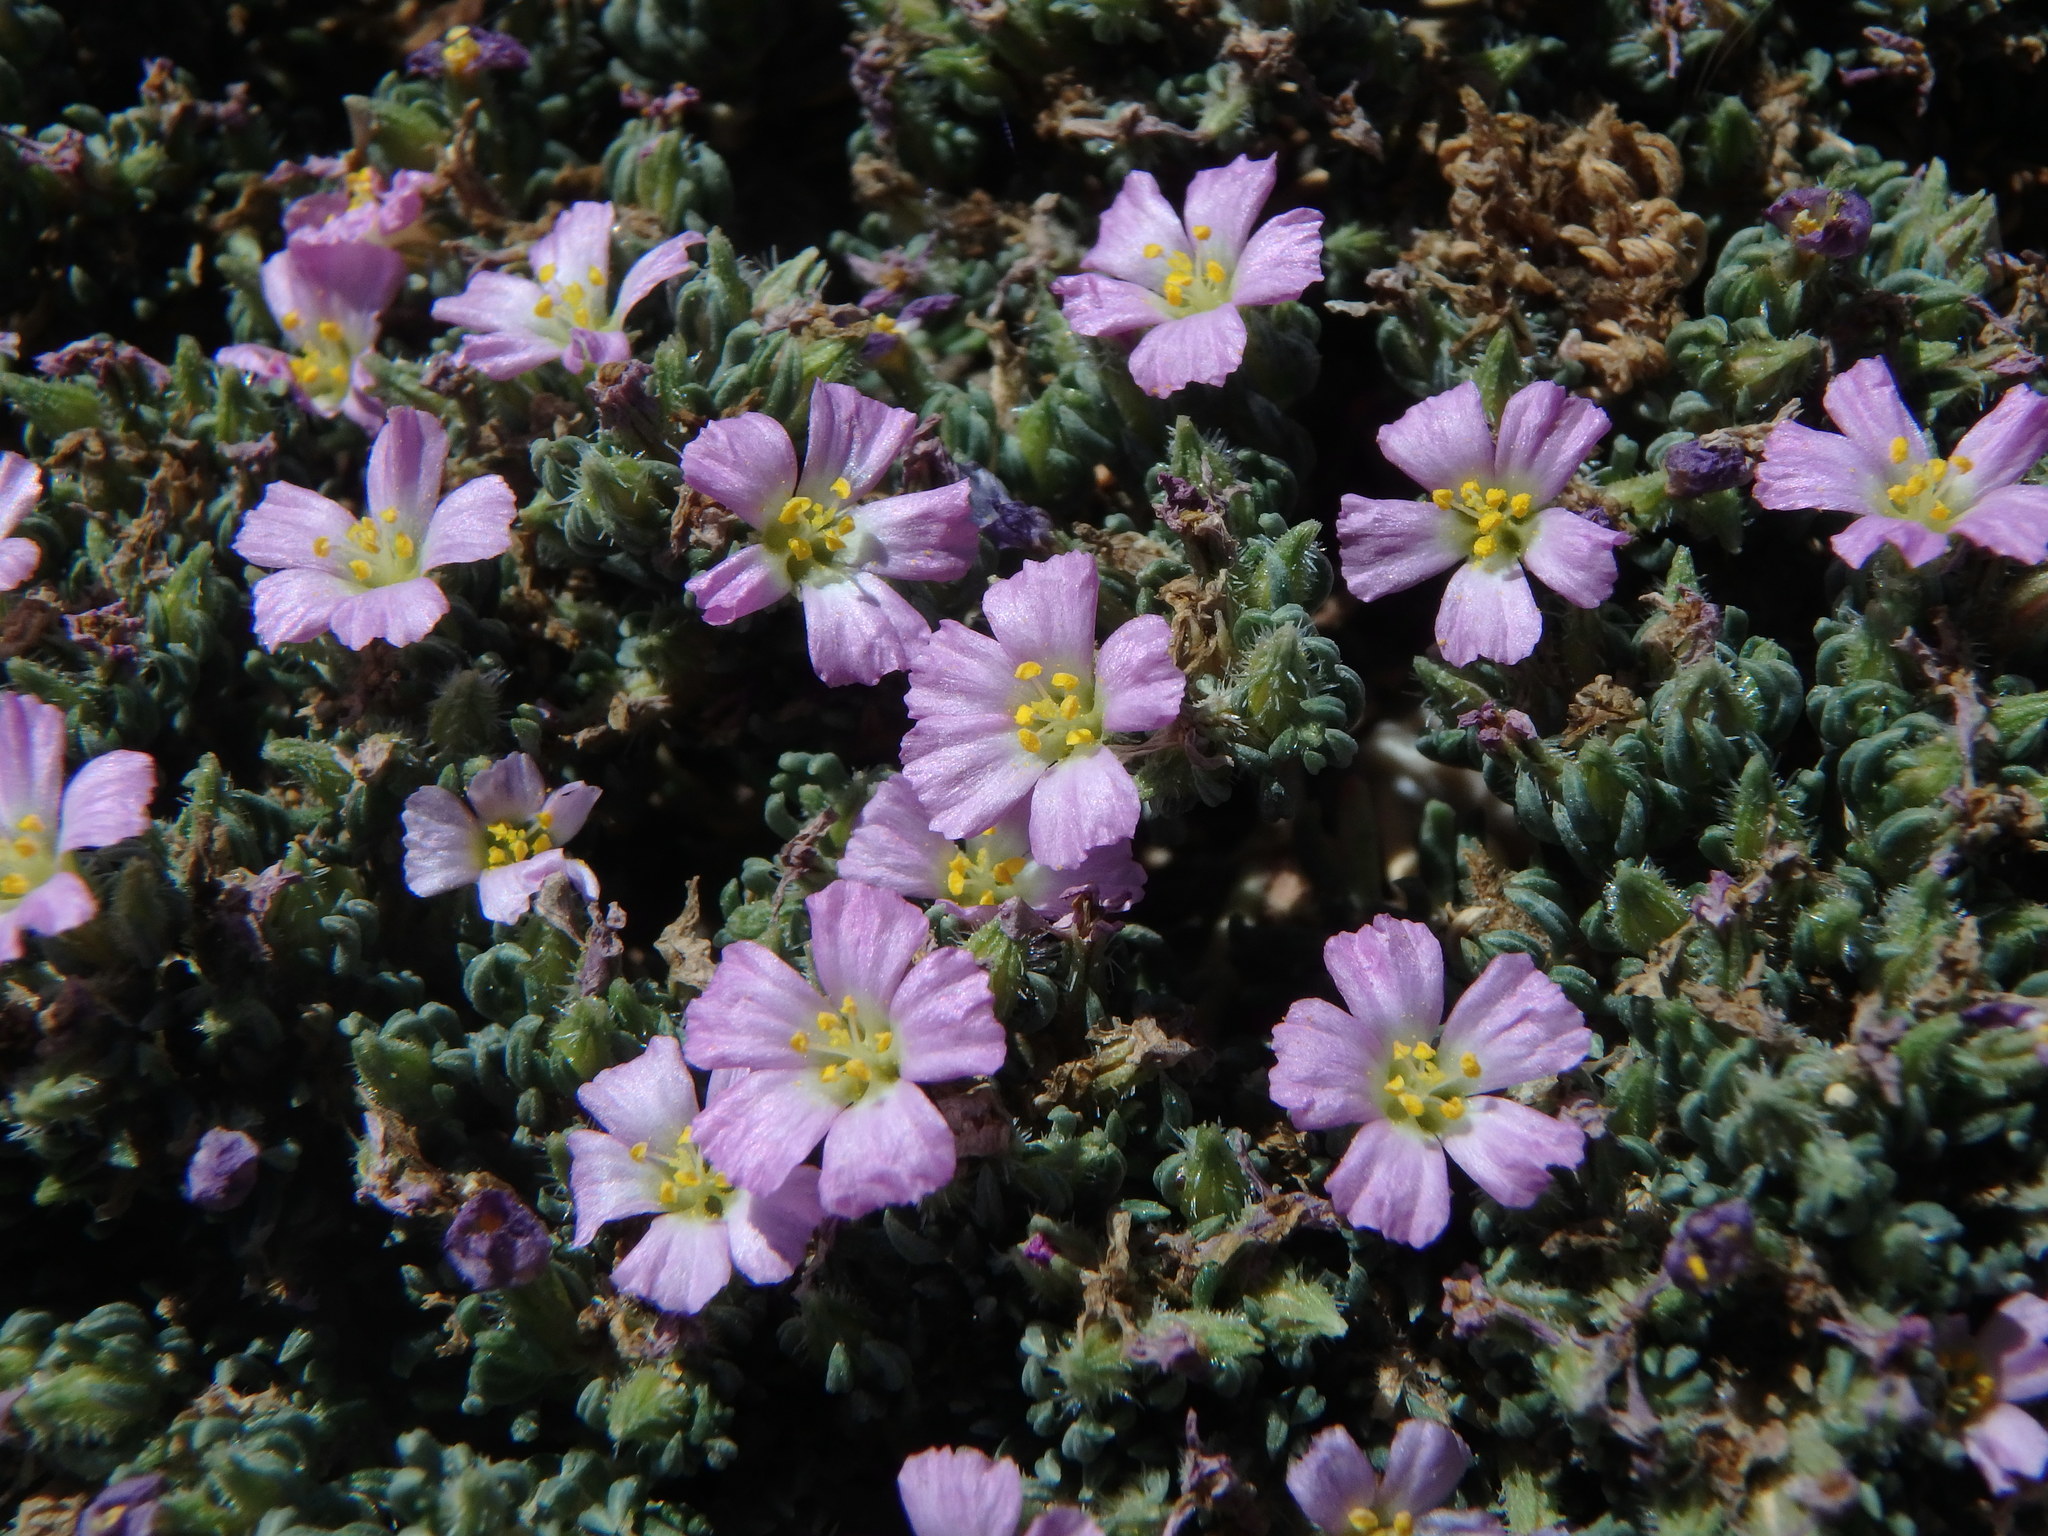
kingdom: Plantae
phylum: Tracheophyta
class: Magnoliopsida
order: Caryophyllales
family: Frankeniaceae
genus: Frankenia
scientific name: Frankenia hirsuta
